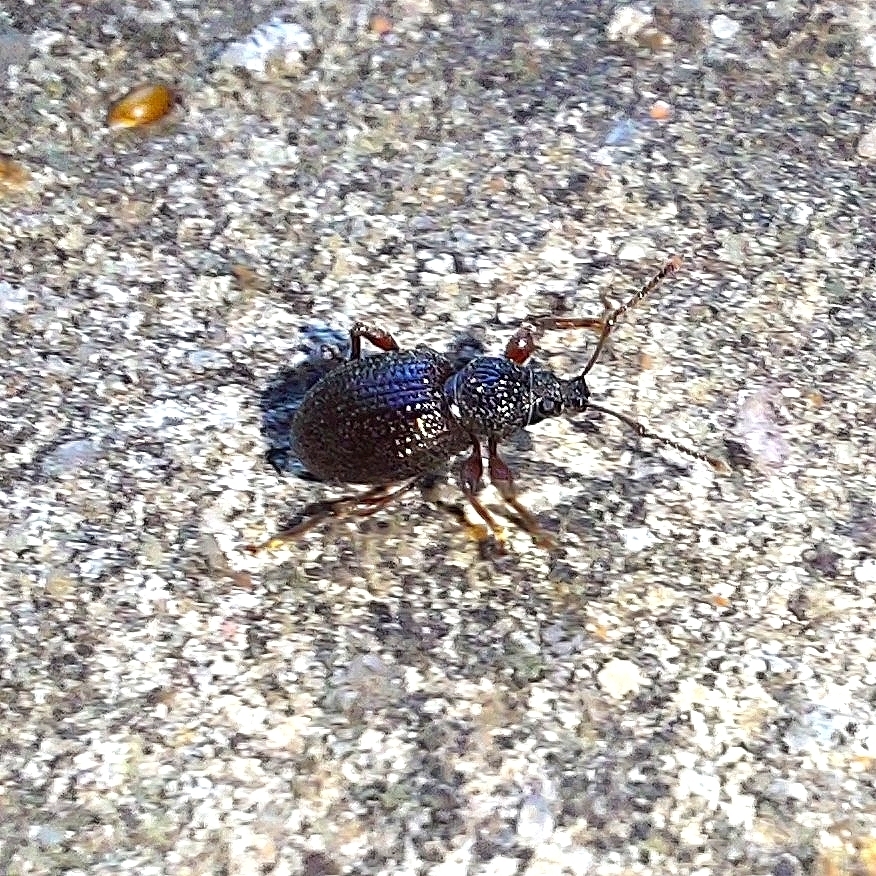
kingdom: Animalia
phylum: Arthropoda
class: Insecta
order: Coleoptera
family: Curculionidae
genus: Otiorhynchus
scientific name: Otiorhynchus ovatus
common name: Strawberry root weevil
